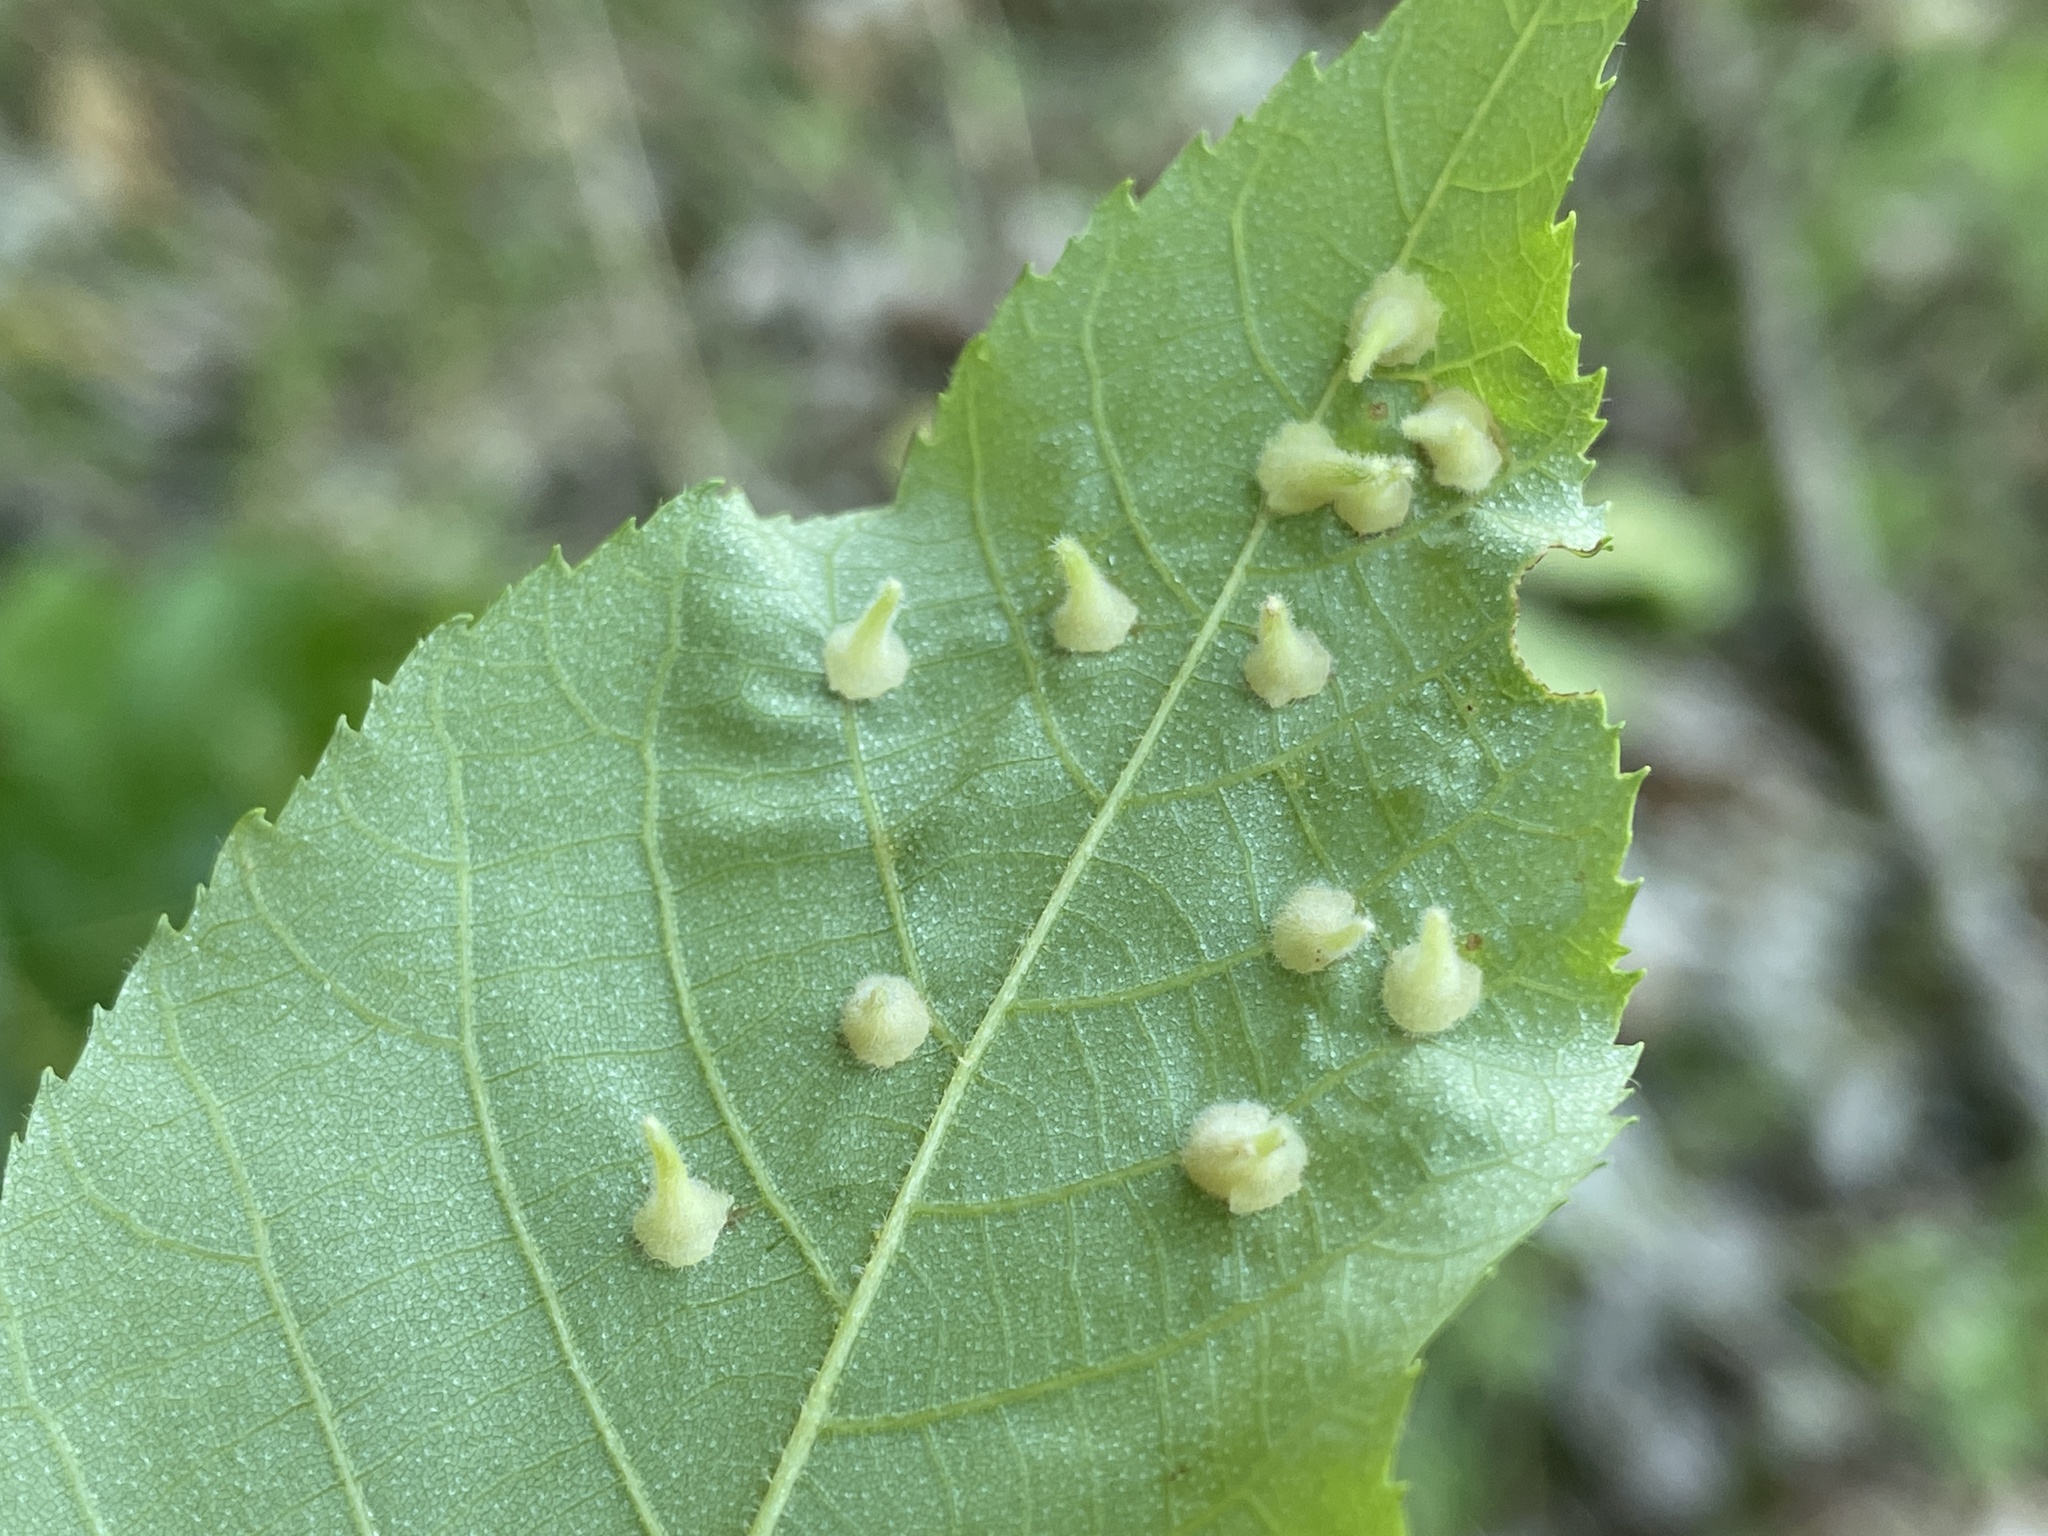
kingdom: Animalia
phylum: Arthropoda
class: Insecta
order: Diptera
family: Cecidomyiidae
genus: Caryomyia
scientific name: Caryomyia inclinata
